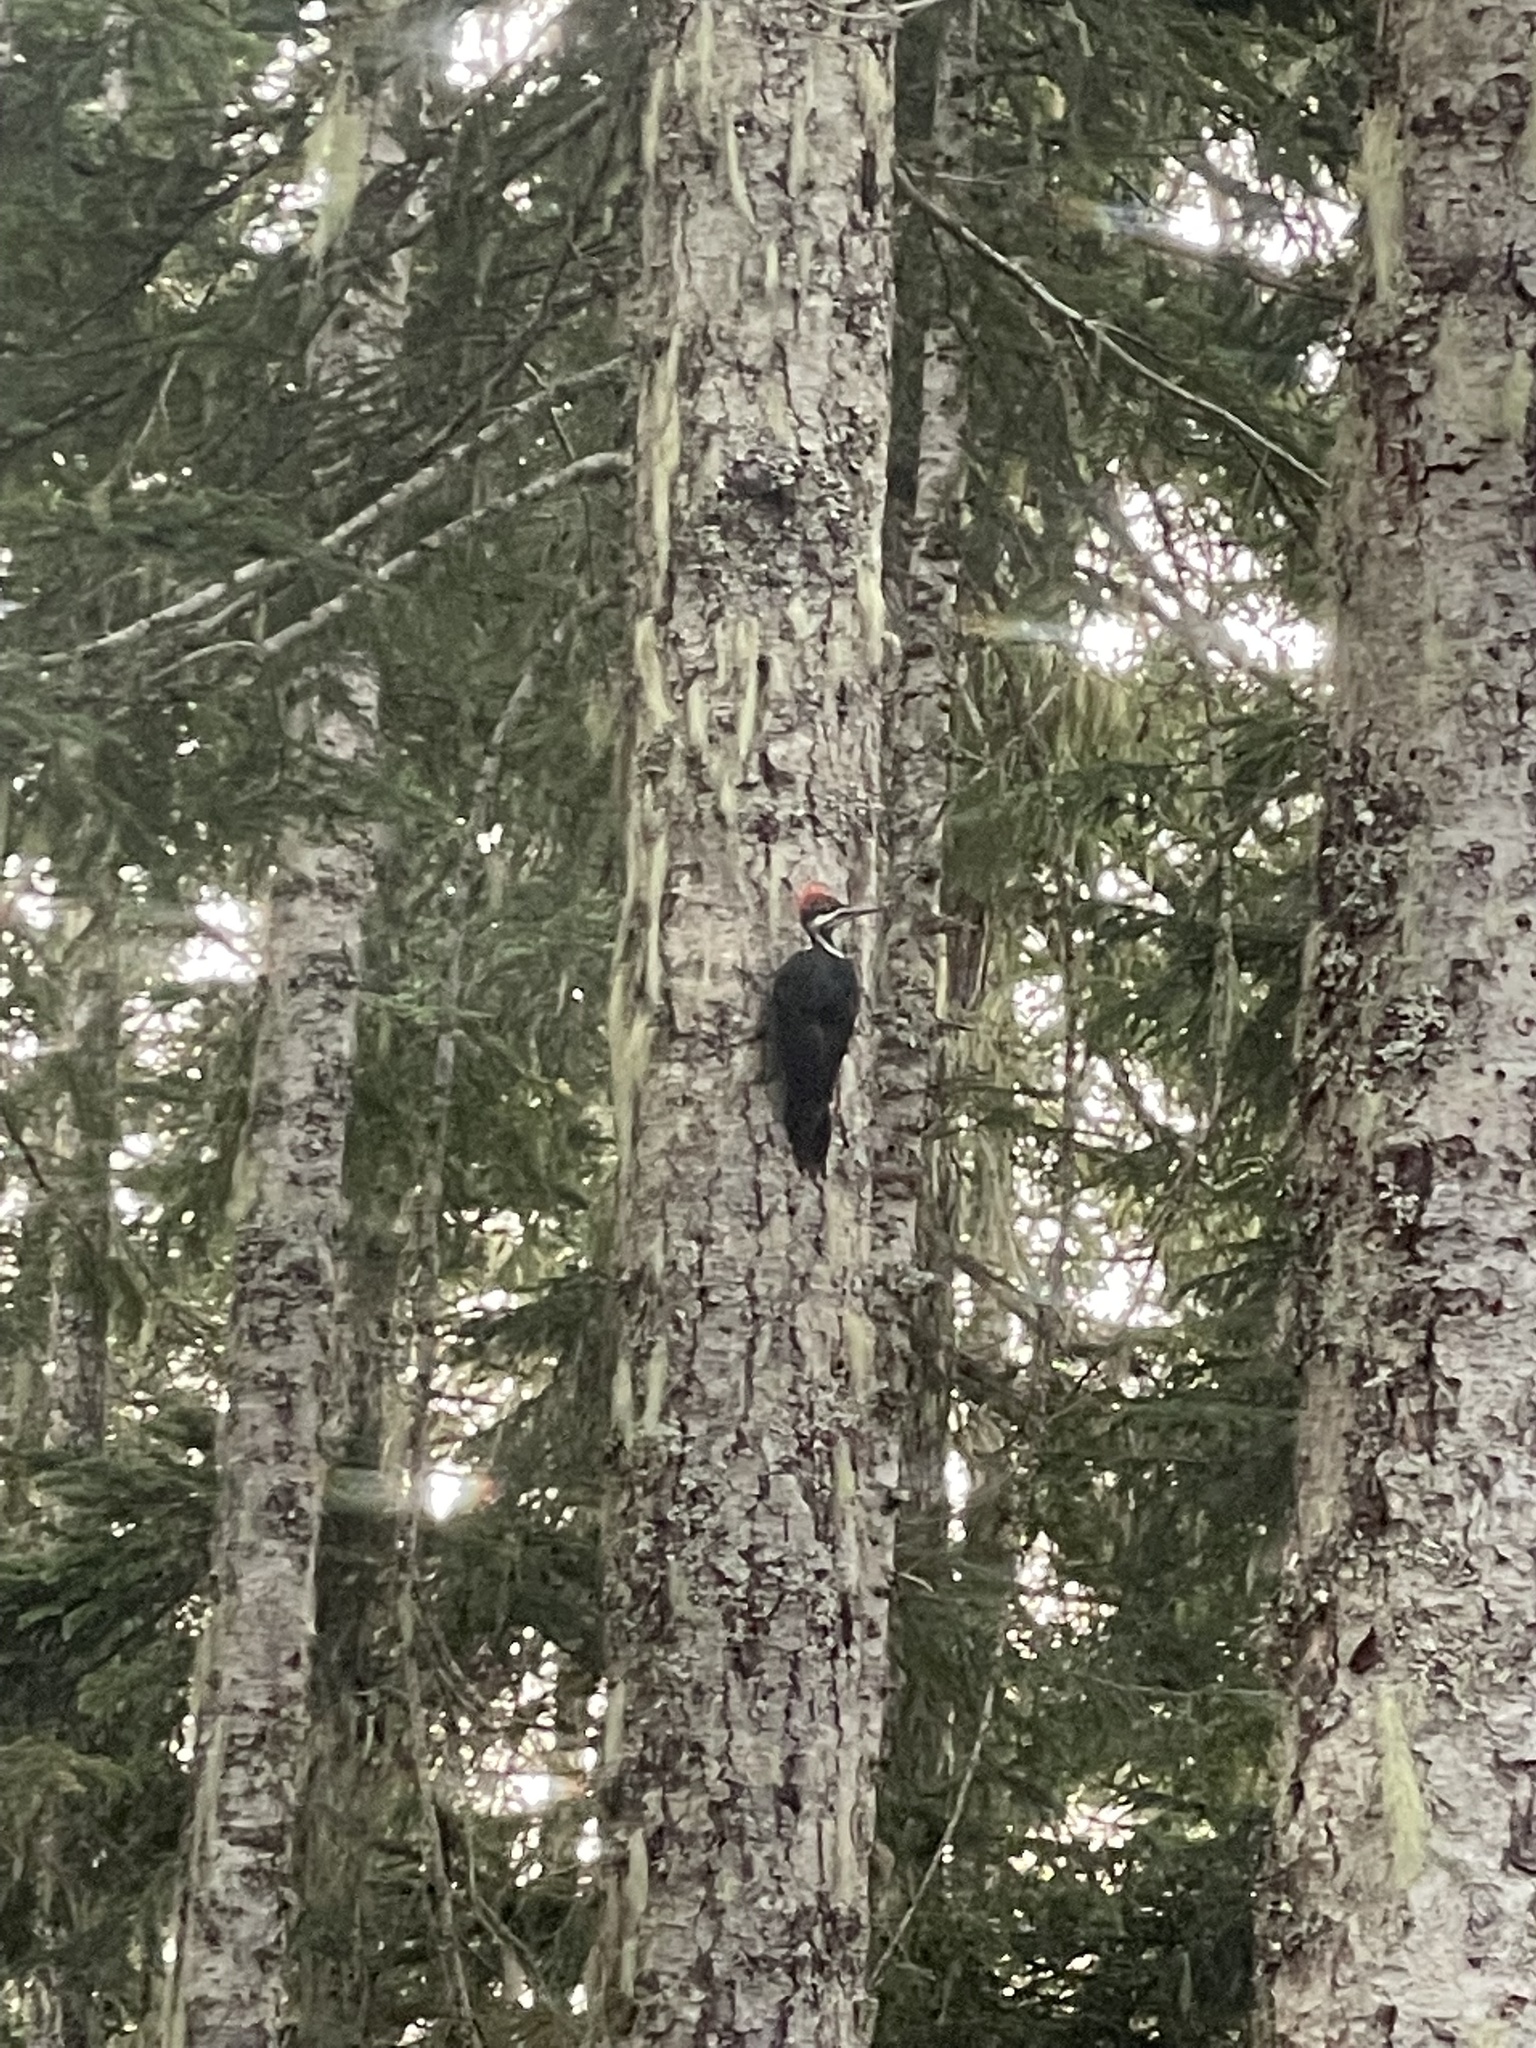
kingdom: Animalia
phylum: Chordata
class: Aves
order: Piciformes
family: Picidae
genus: Dryocopus
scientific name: Dryocopus pileatus
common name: Pileated woodpecker
